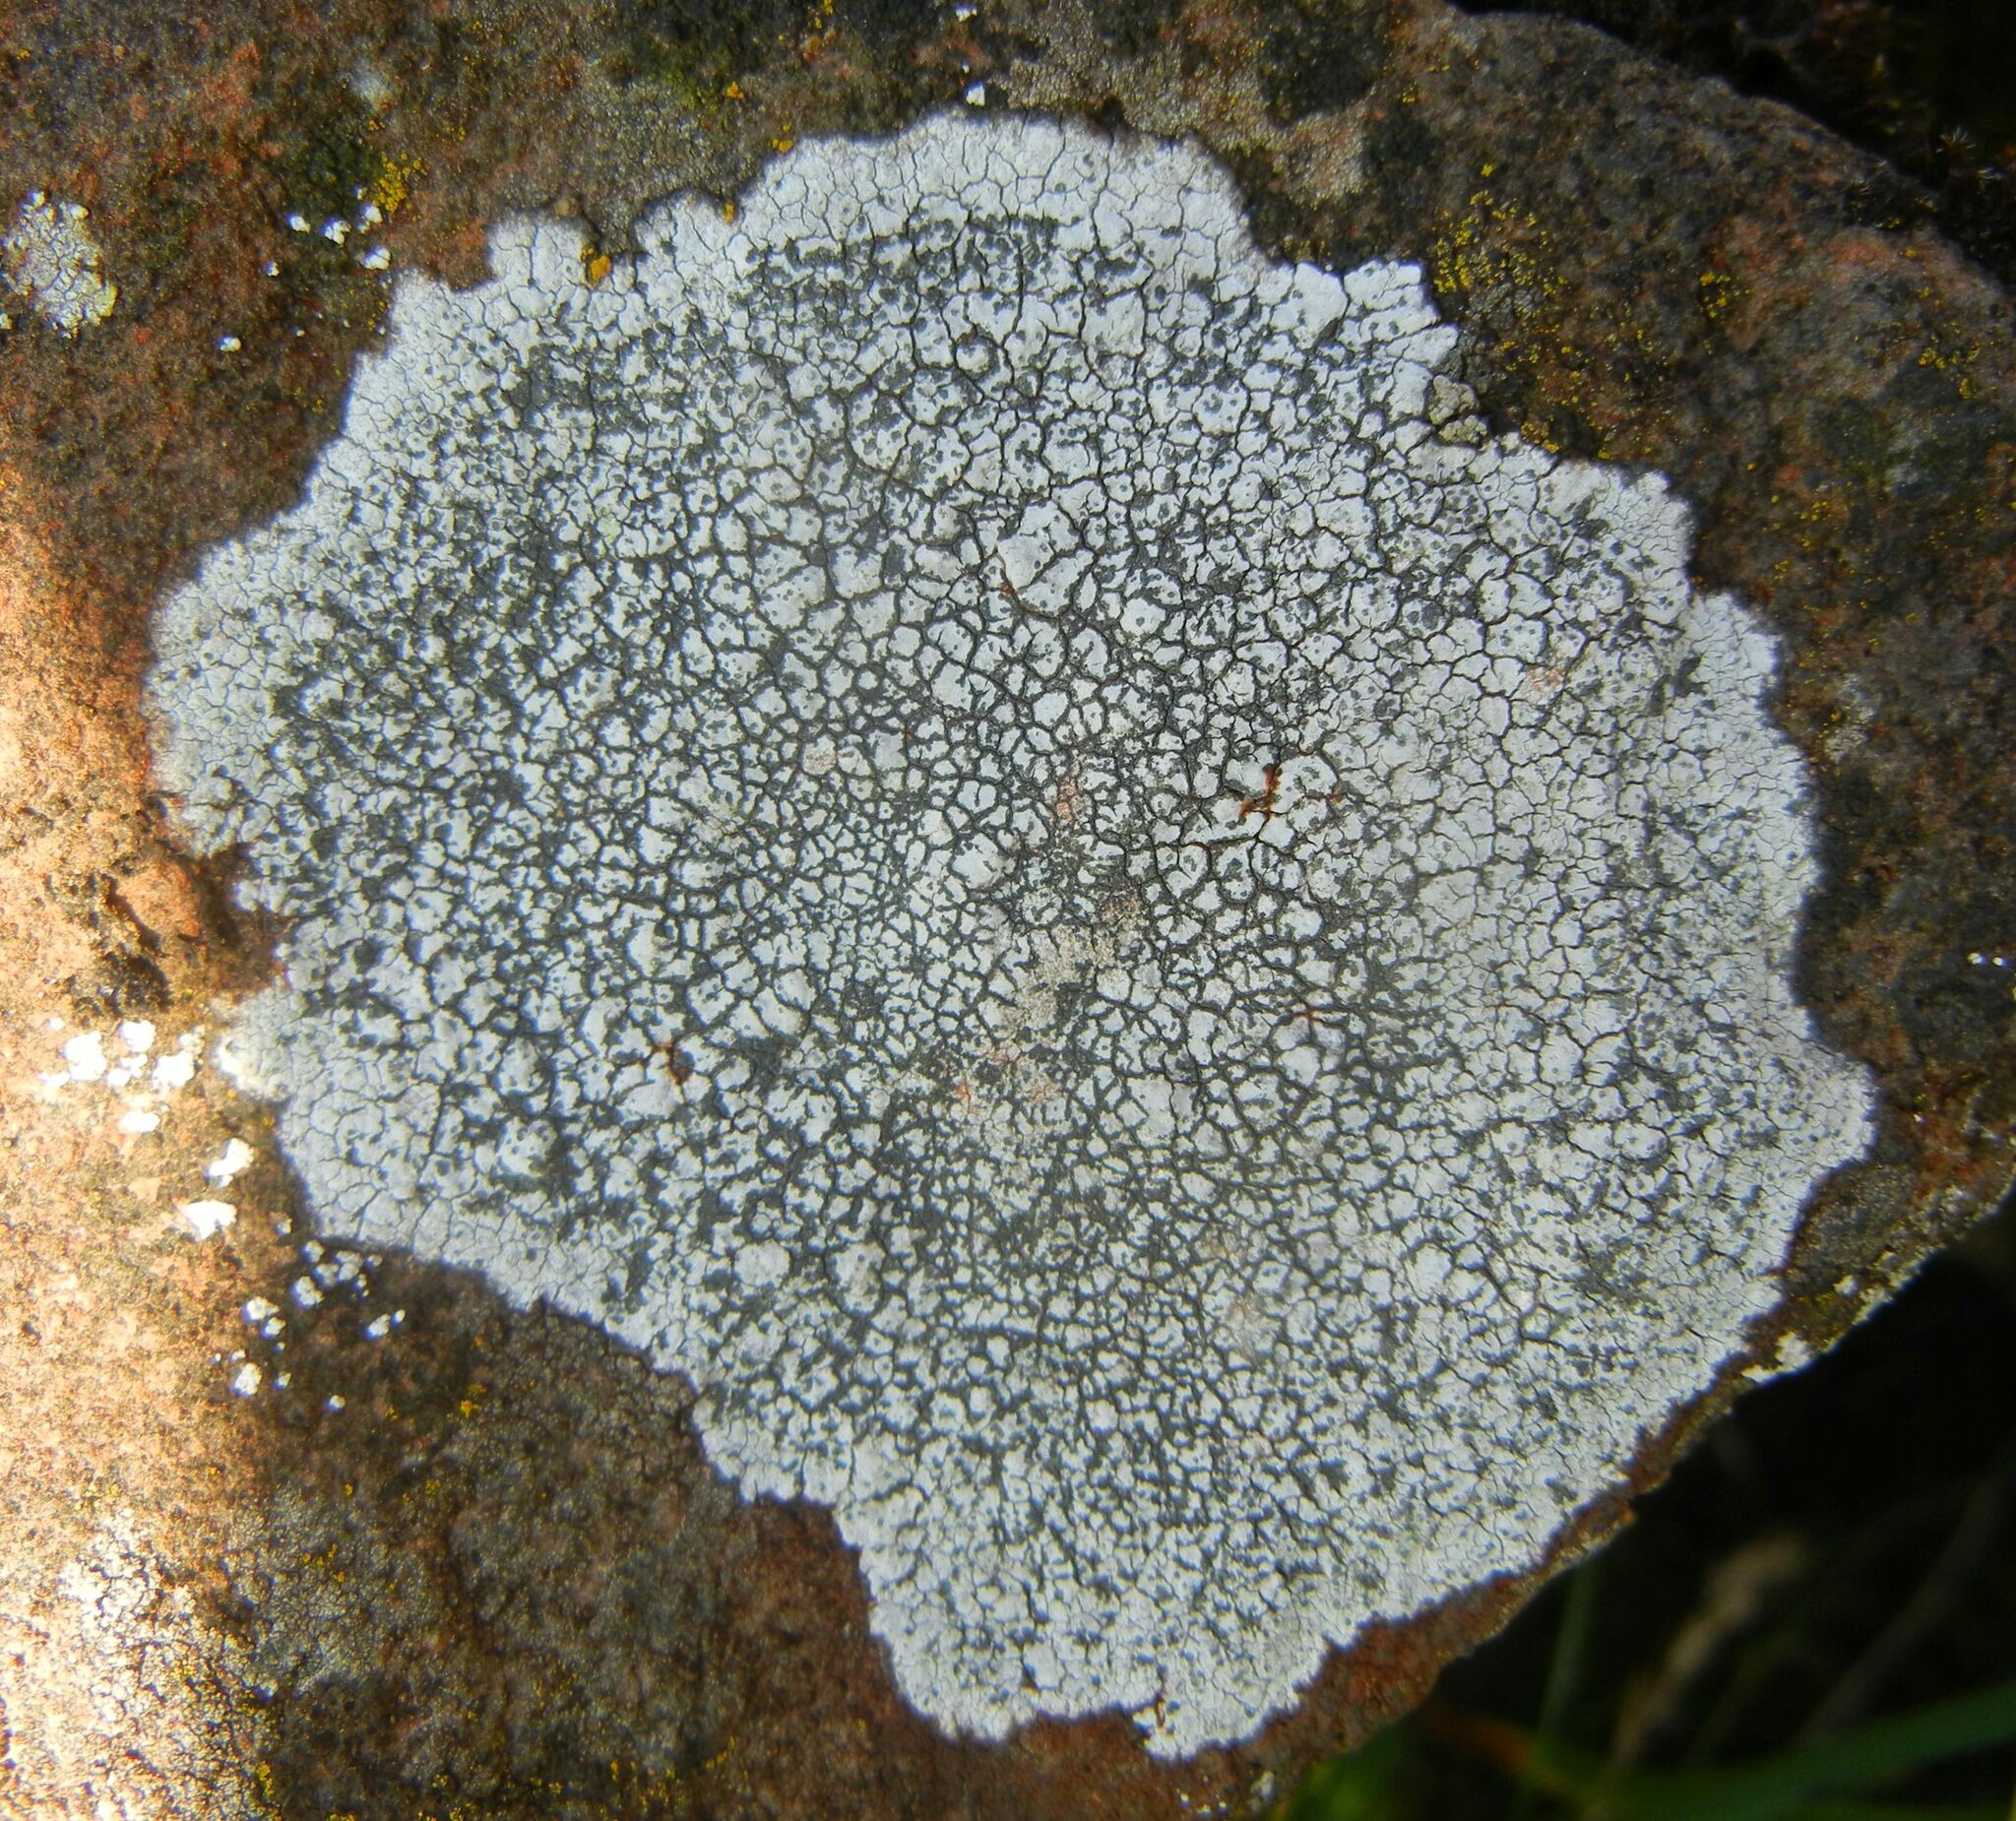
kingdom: Fungi
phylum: Ascomycota
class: Lecanoromycetes
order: Lecideales
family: Lecideaceae
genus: Porpidia
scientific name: Porpidia tuberculosa
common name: Boulder lichen
